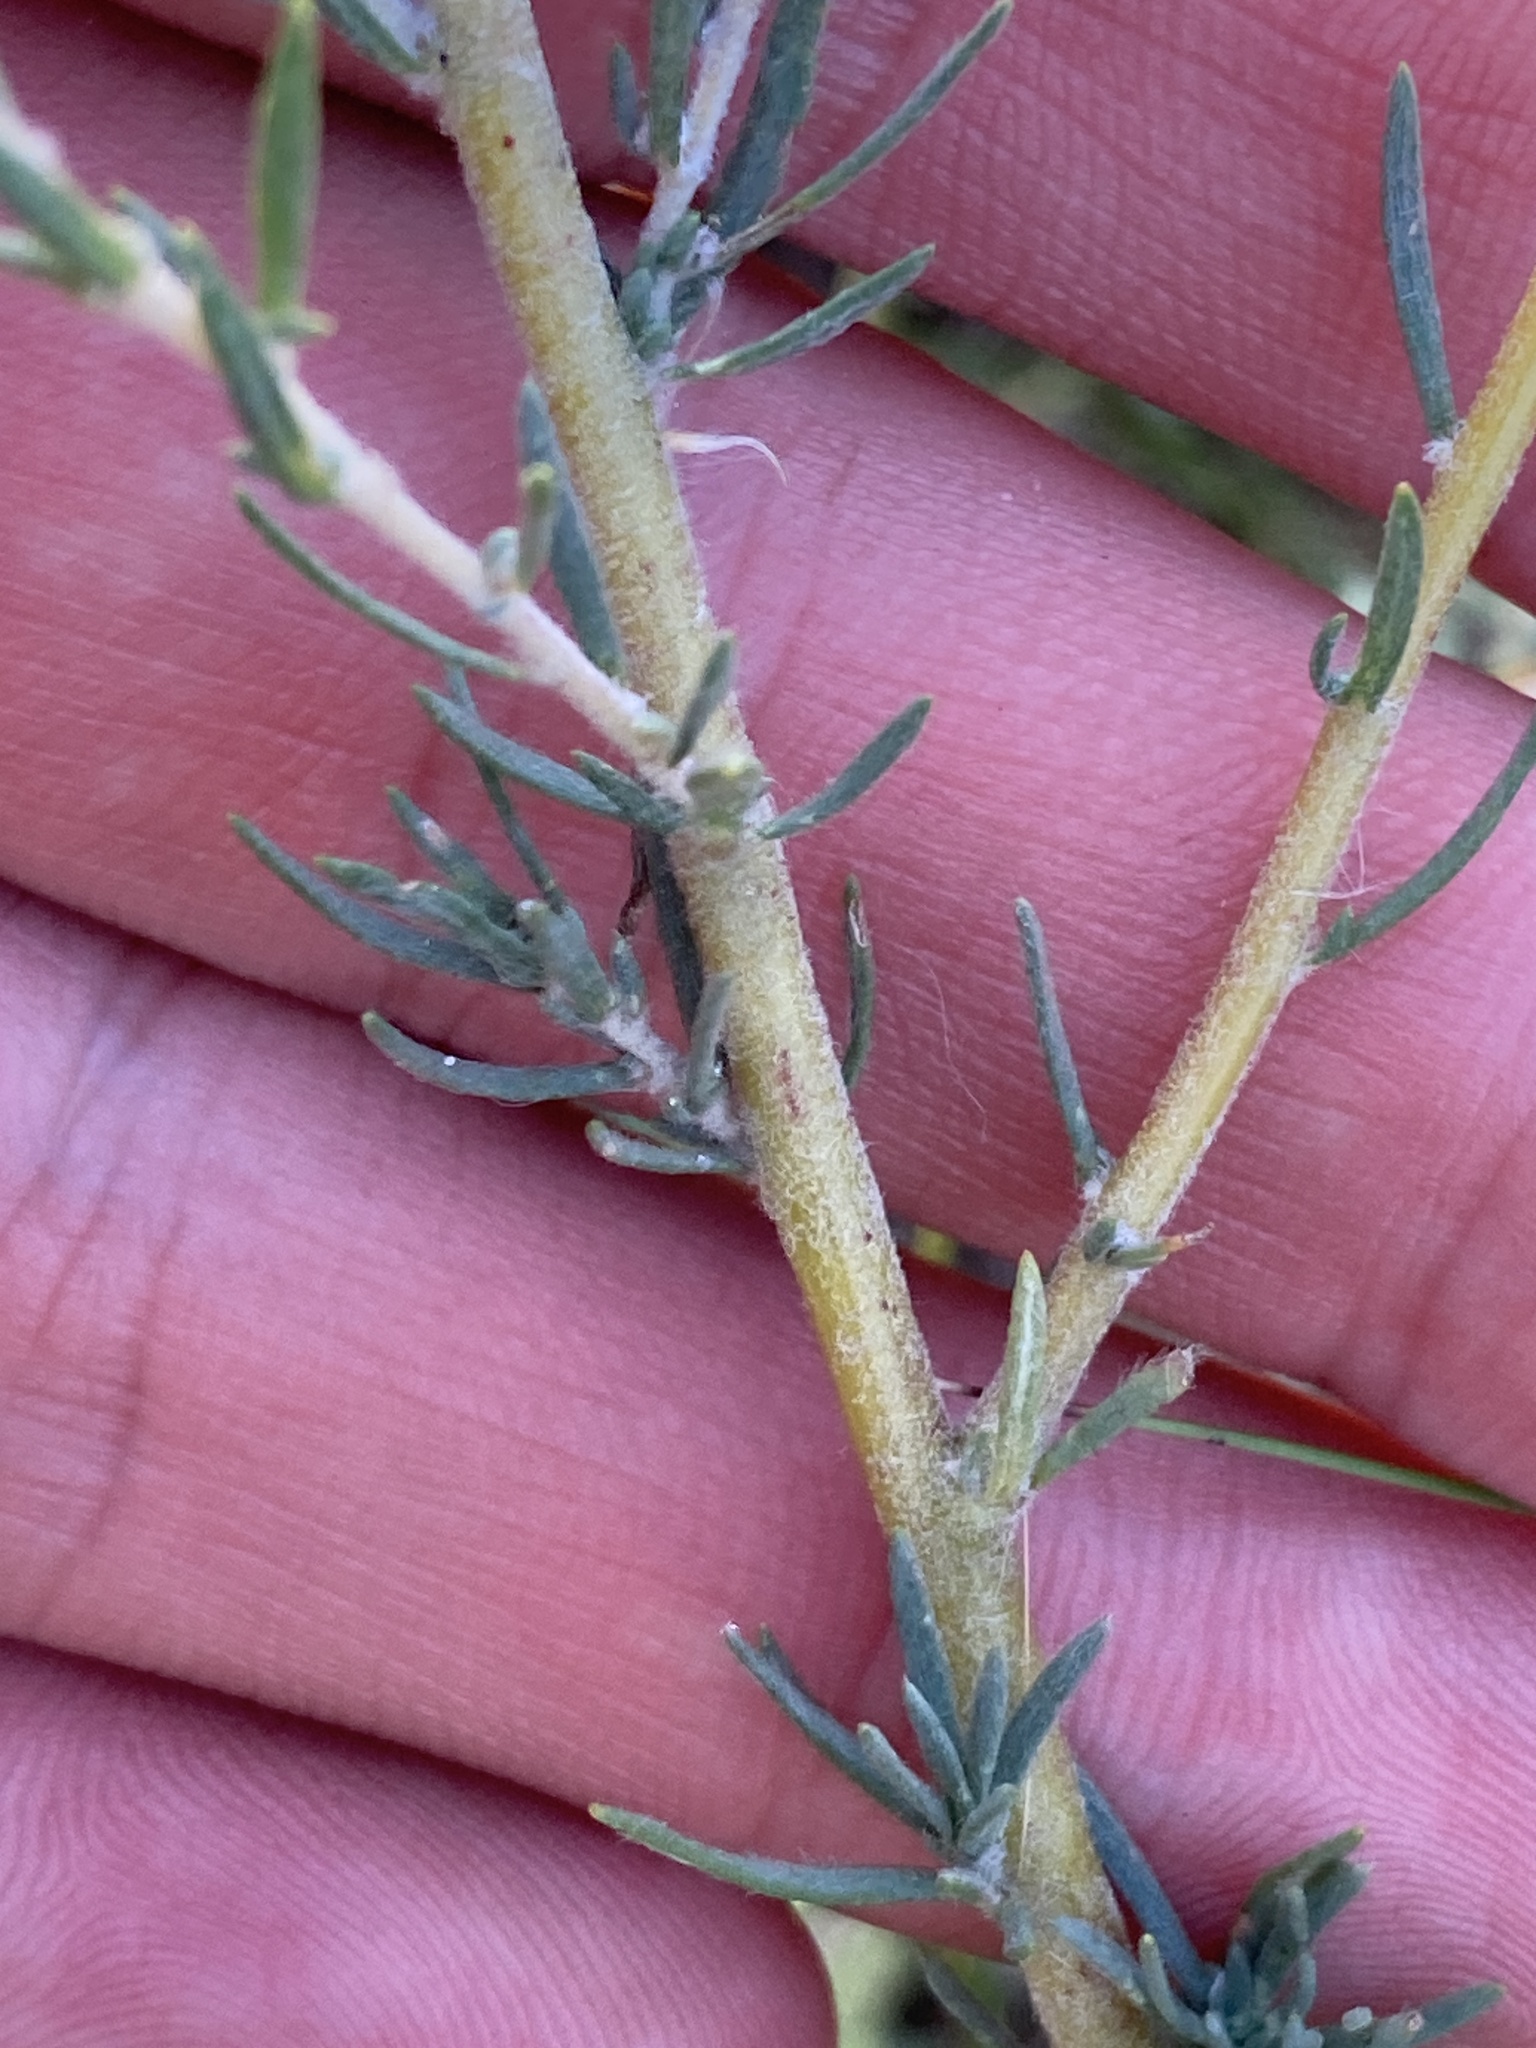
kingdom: Plantae
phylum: Tracheophyta
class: Magnoliopsida
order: Caryophyllales
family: Amaranthaceae
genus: Bassia
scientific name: Bassia prostrata
